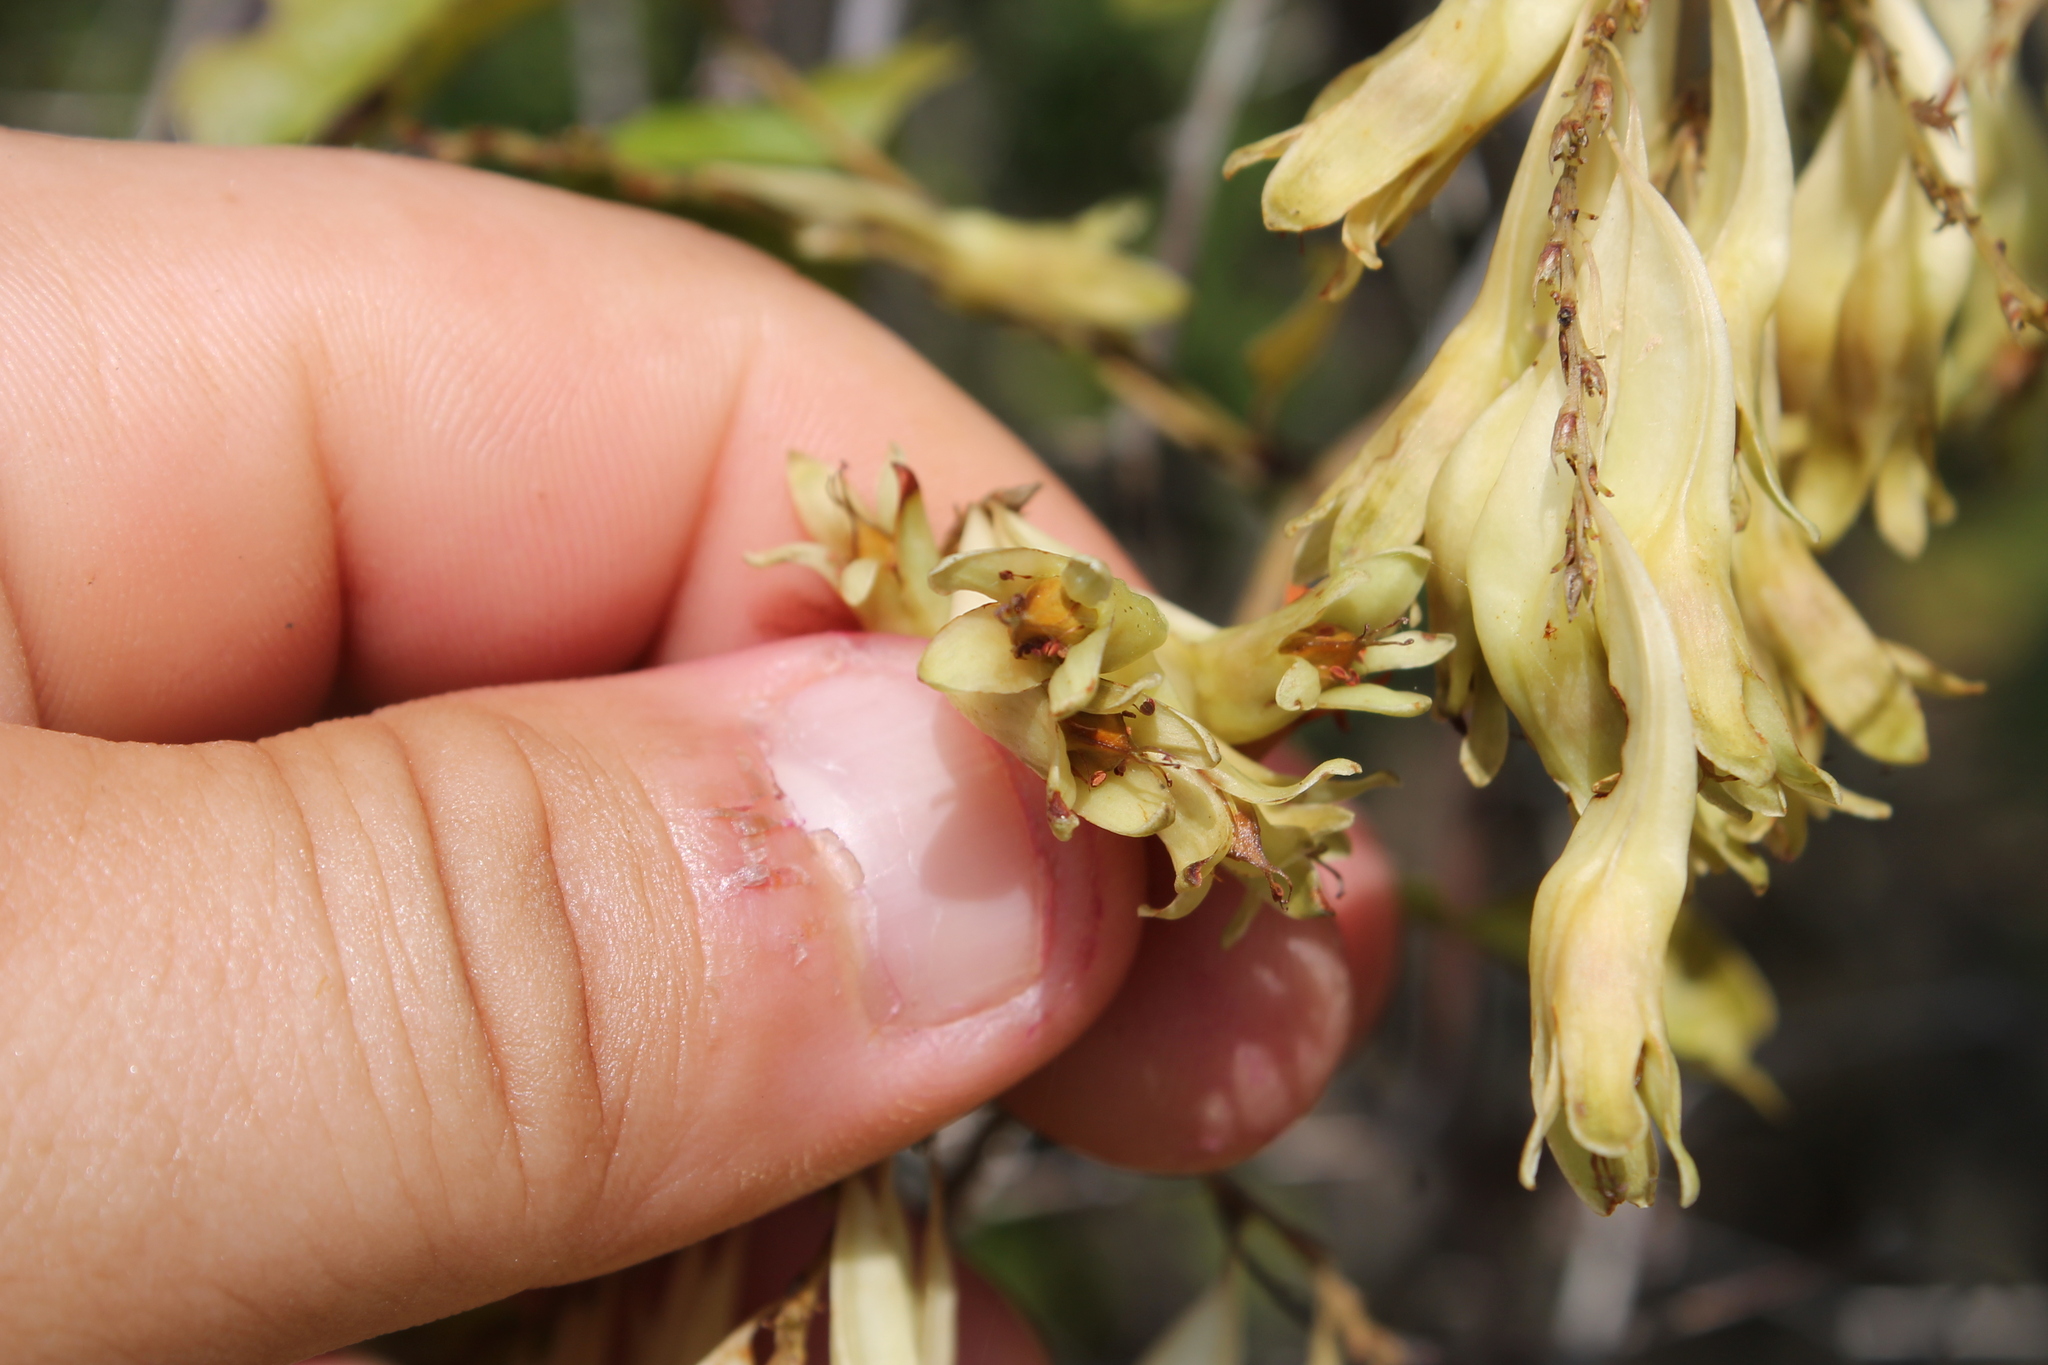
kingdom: Plantae
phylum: Tracheophyta
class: Magnoliopsida
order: Caryophyllales
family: Polygonaceae
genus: Brunnichia
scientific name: Brunnichia ovata
